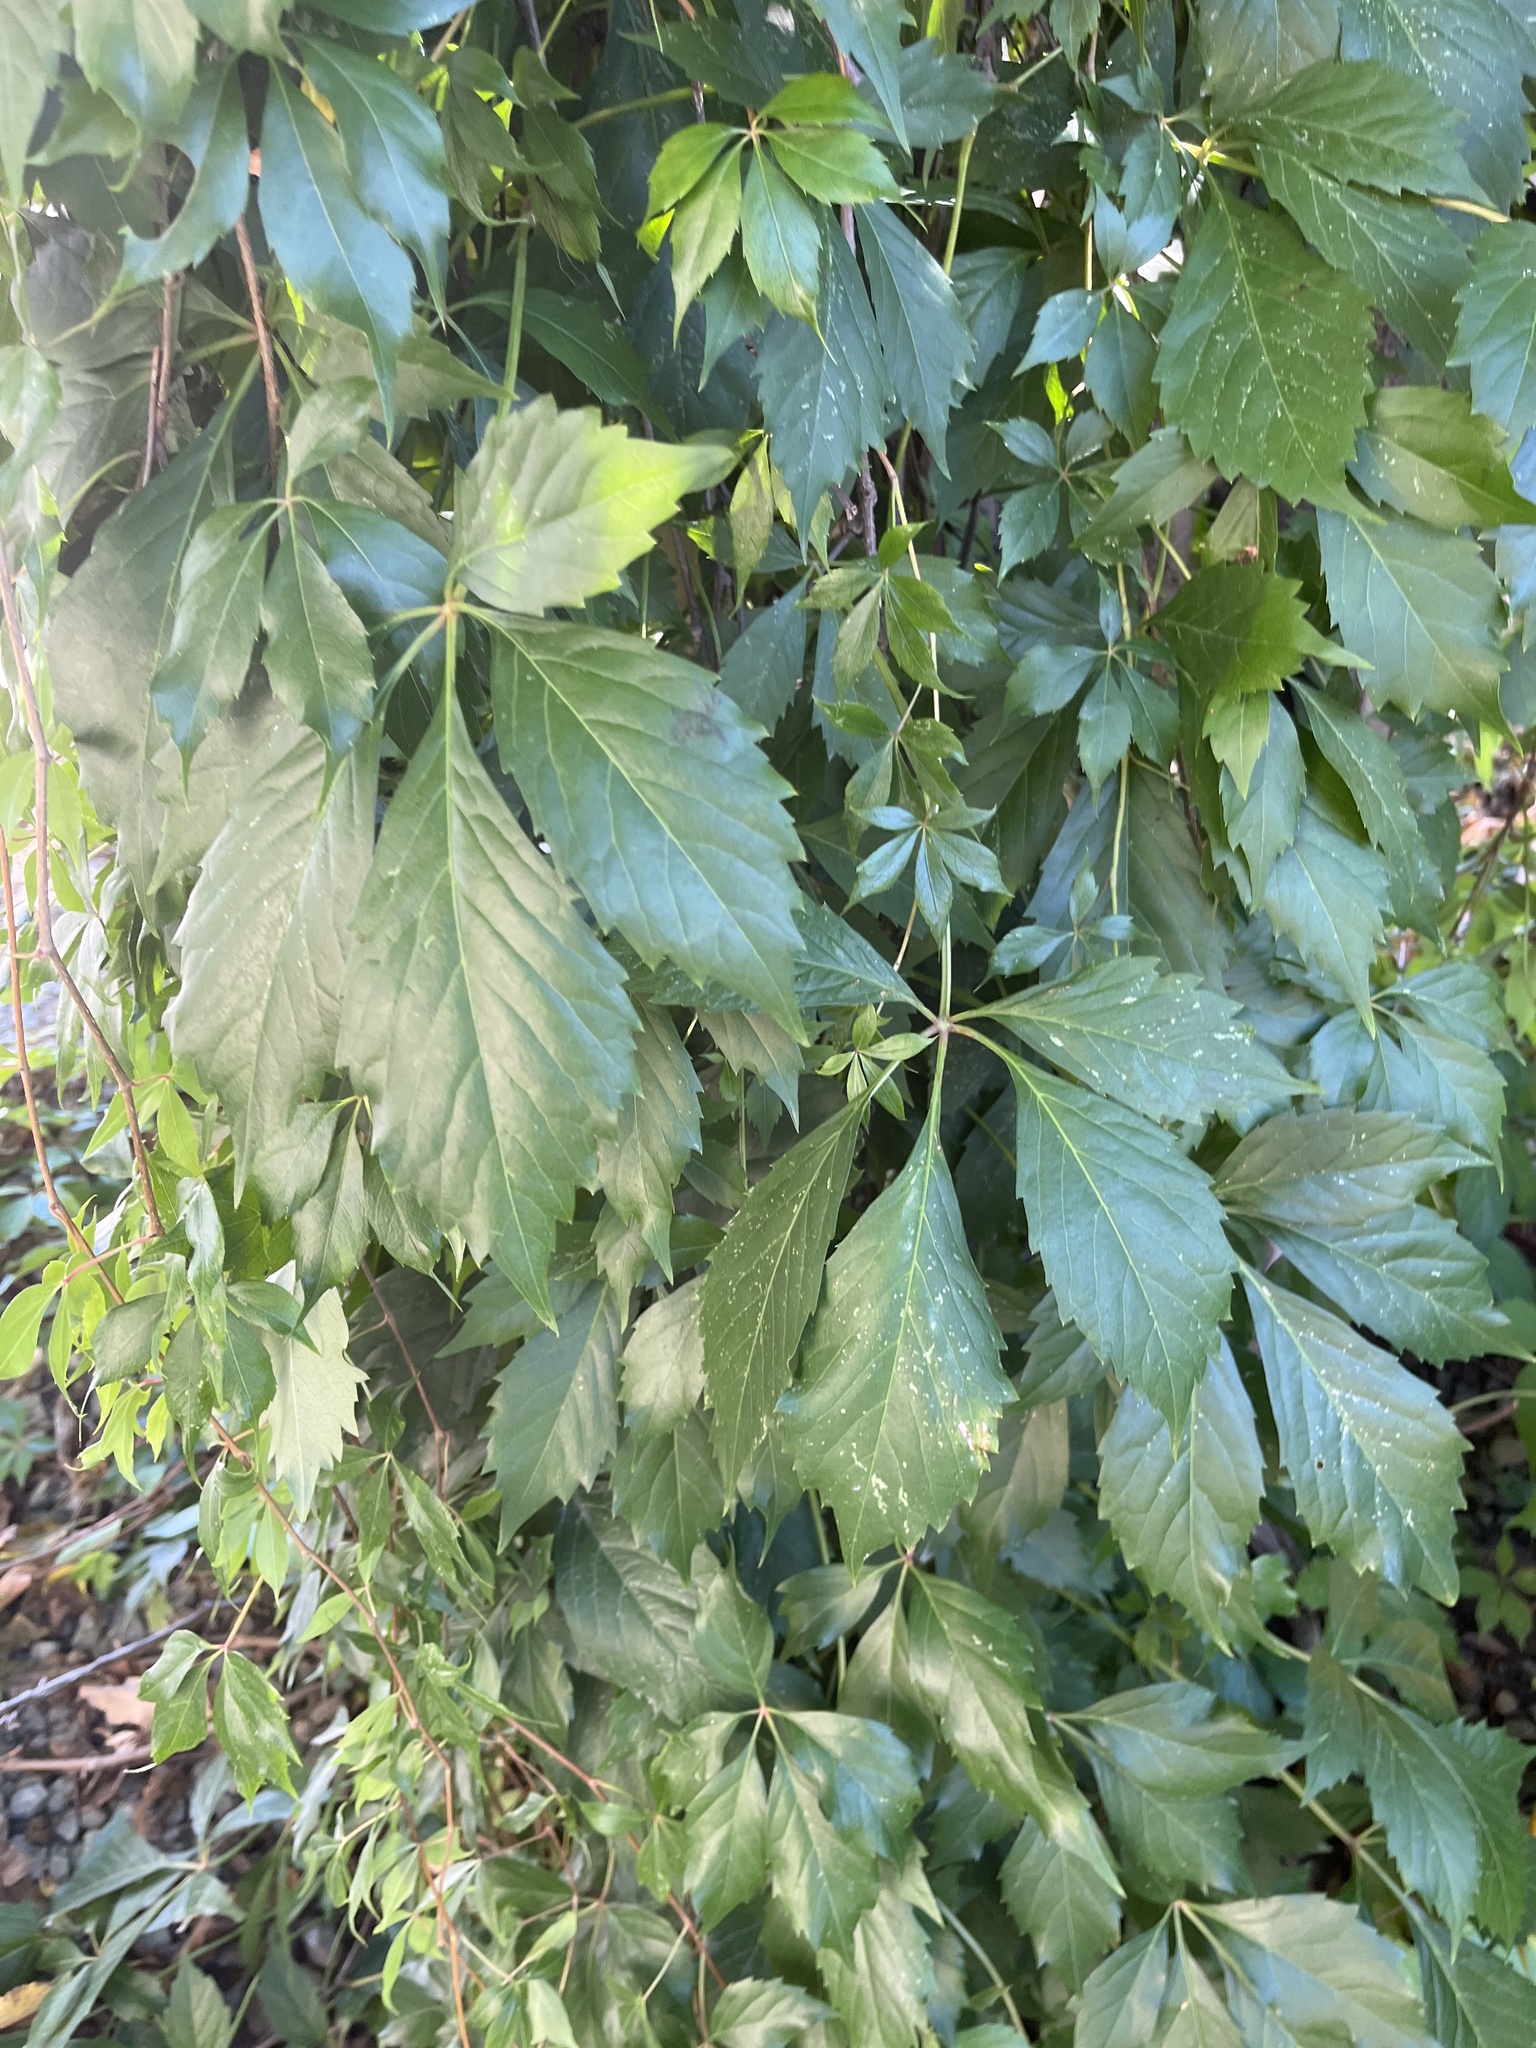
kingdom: Plantae
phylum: Tracheophyta
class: Magnoliopsida
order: Vitales
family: Vitaceae
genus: Parthenocissus
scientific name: Parthenocissus quinquefolia
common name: Virginia-creeper
